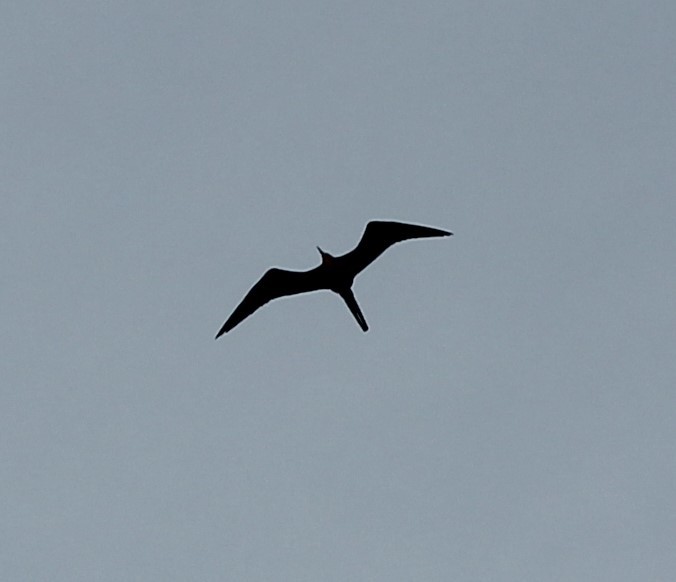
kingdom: Animalia
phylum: Chordata
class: Aves
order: Suliformes
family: Fregatidae
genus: Fregata
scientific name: Fregata magnificens
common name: Magnificent frigatebird
